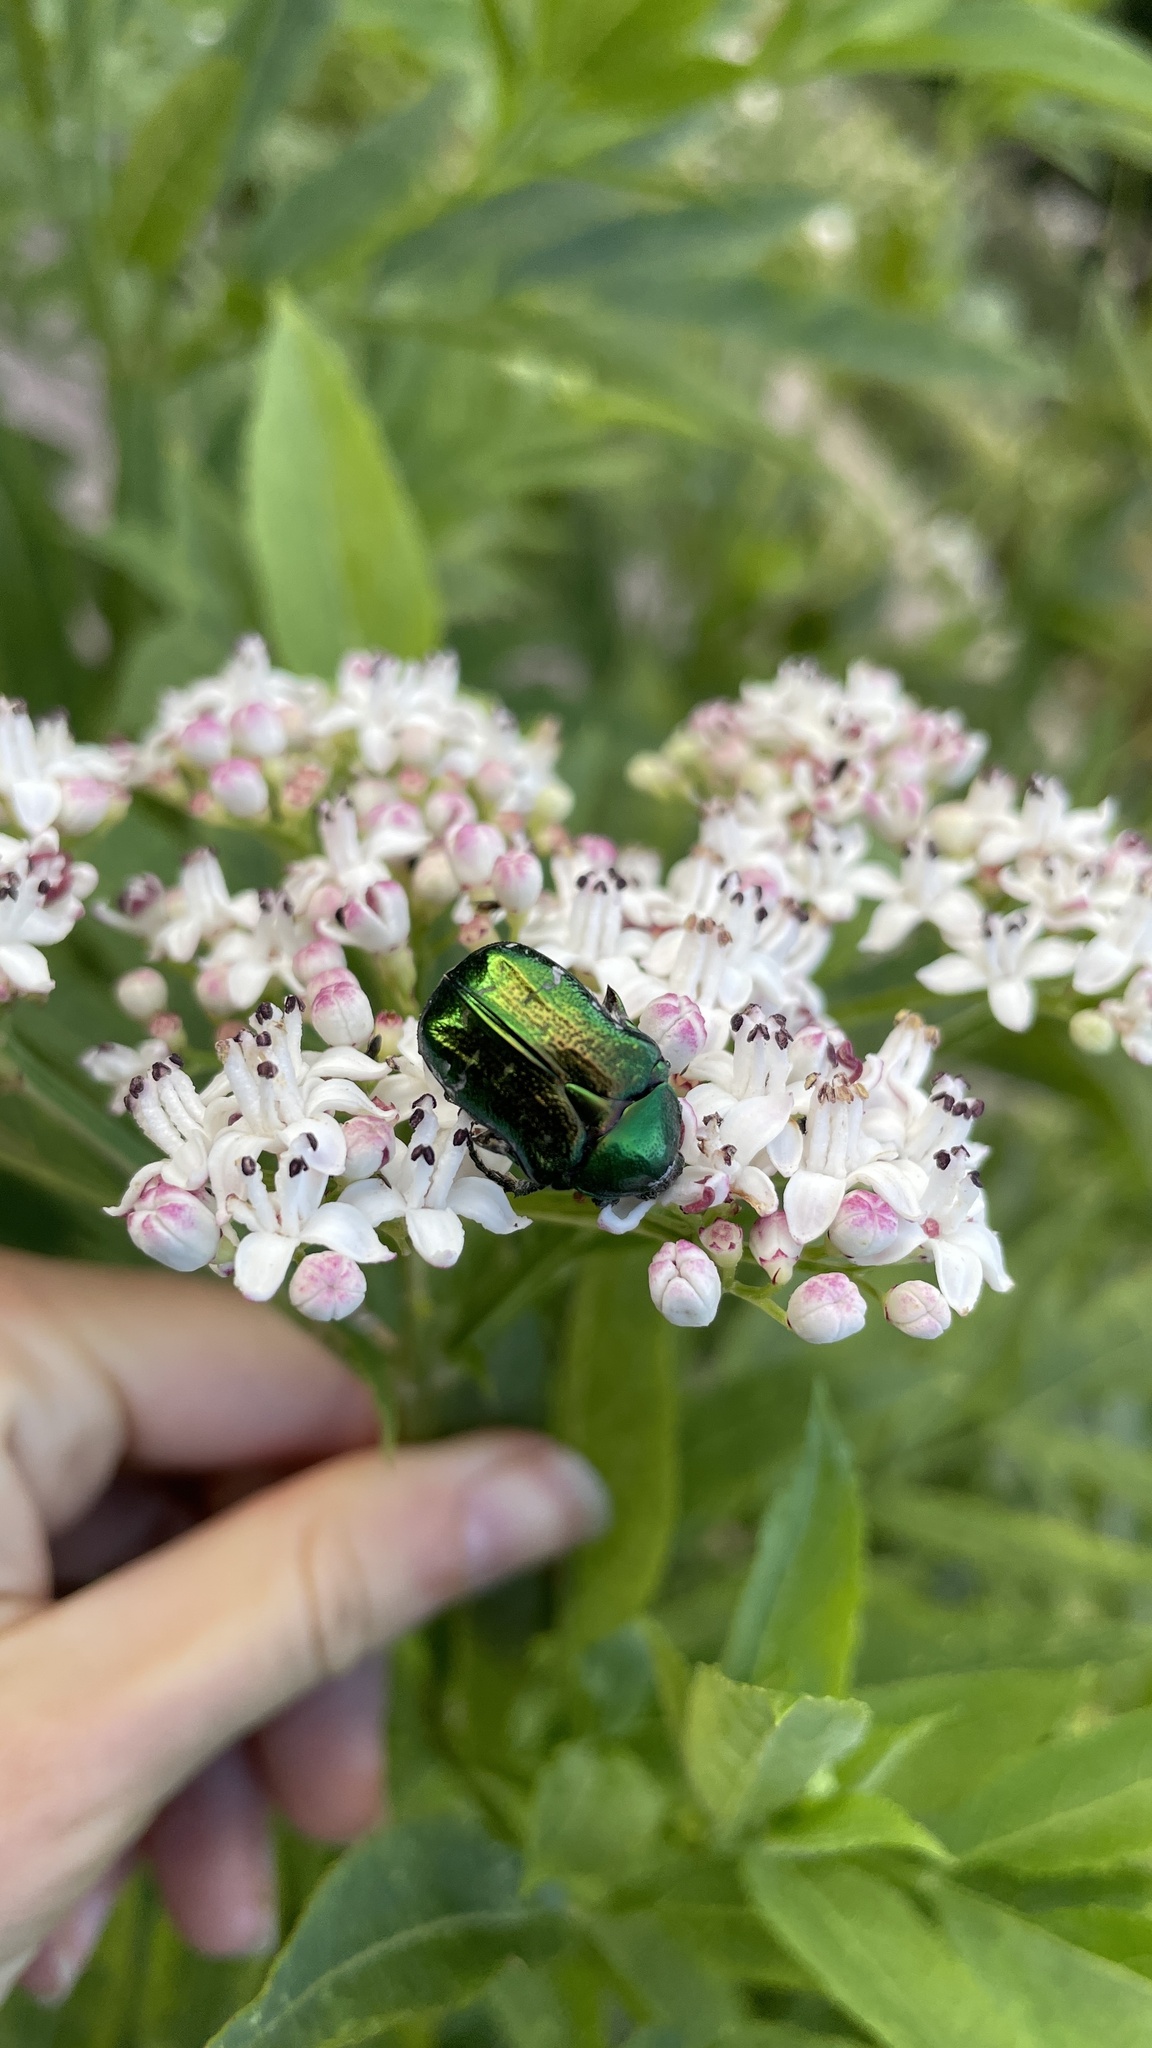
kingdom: Animalia
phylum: Arthropoda
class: Insecta
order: Coleoptera
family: Scarabaeidae
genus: Cetonia
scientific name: Cetonia aurata
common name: Rose chafer
